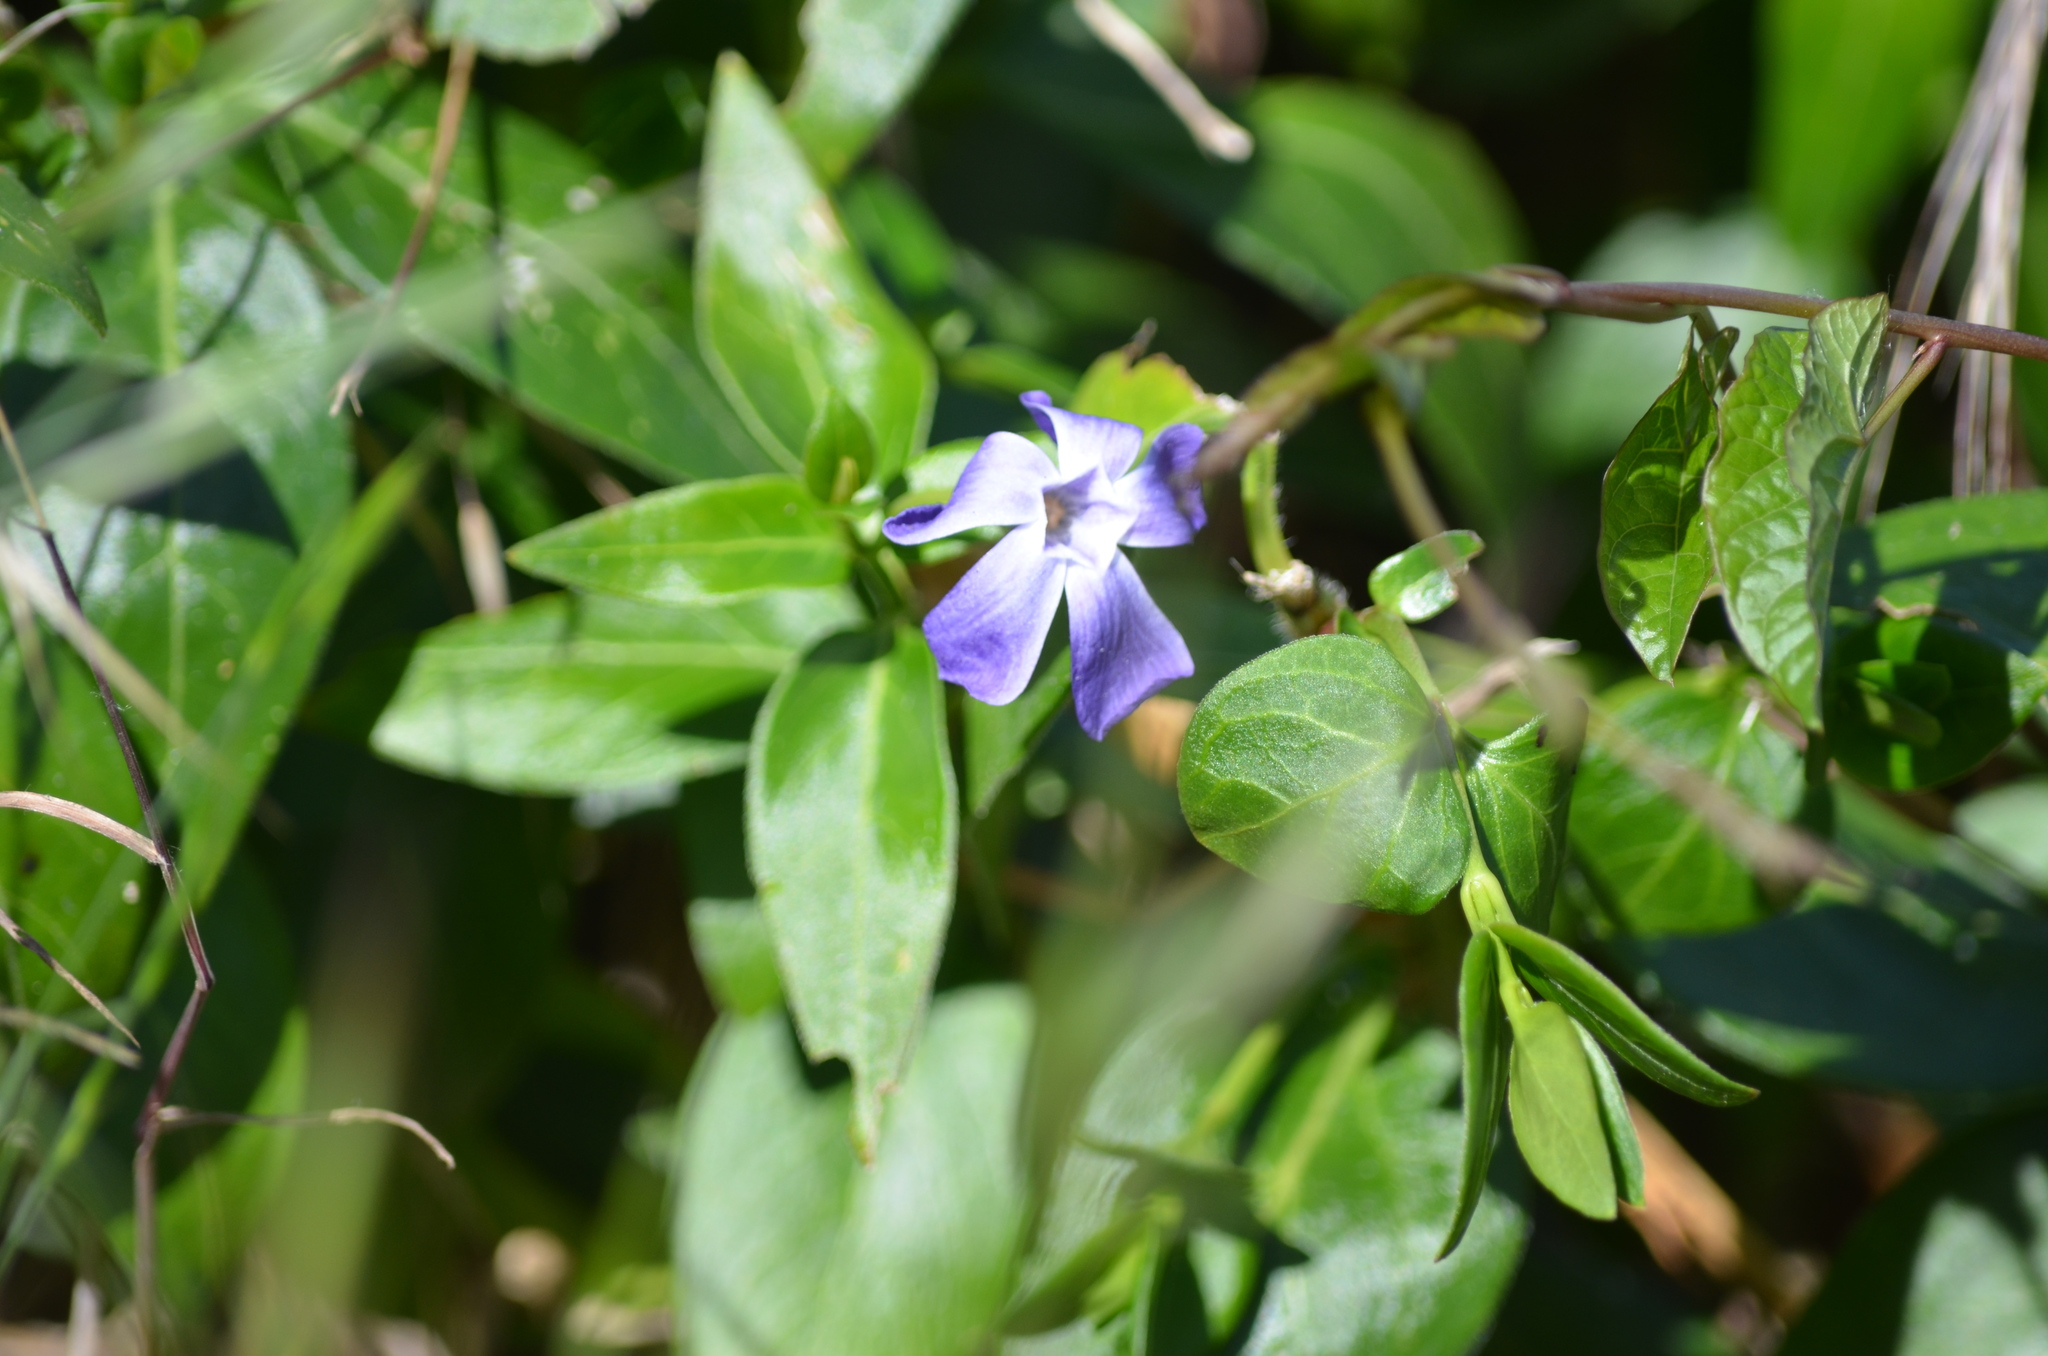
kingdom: Plantae
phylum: Tracheophyta
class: Magnoliopsida
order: Gentianales
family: Apocynaceae
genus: Vinca
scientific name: Vinca major
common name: Greater periwinkle
